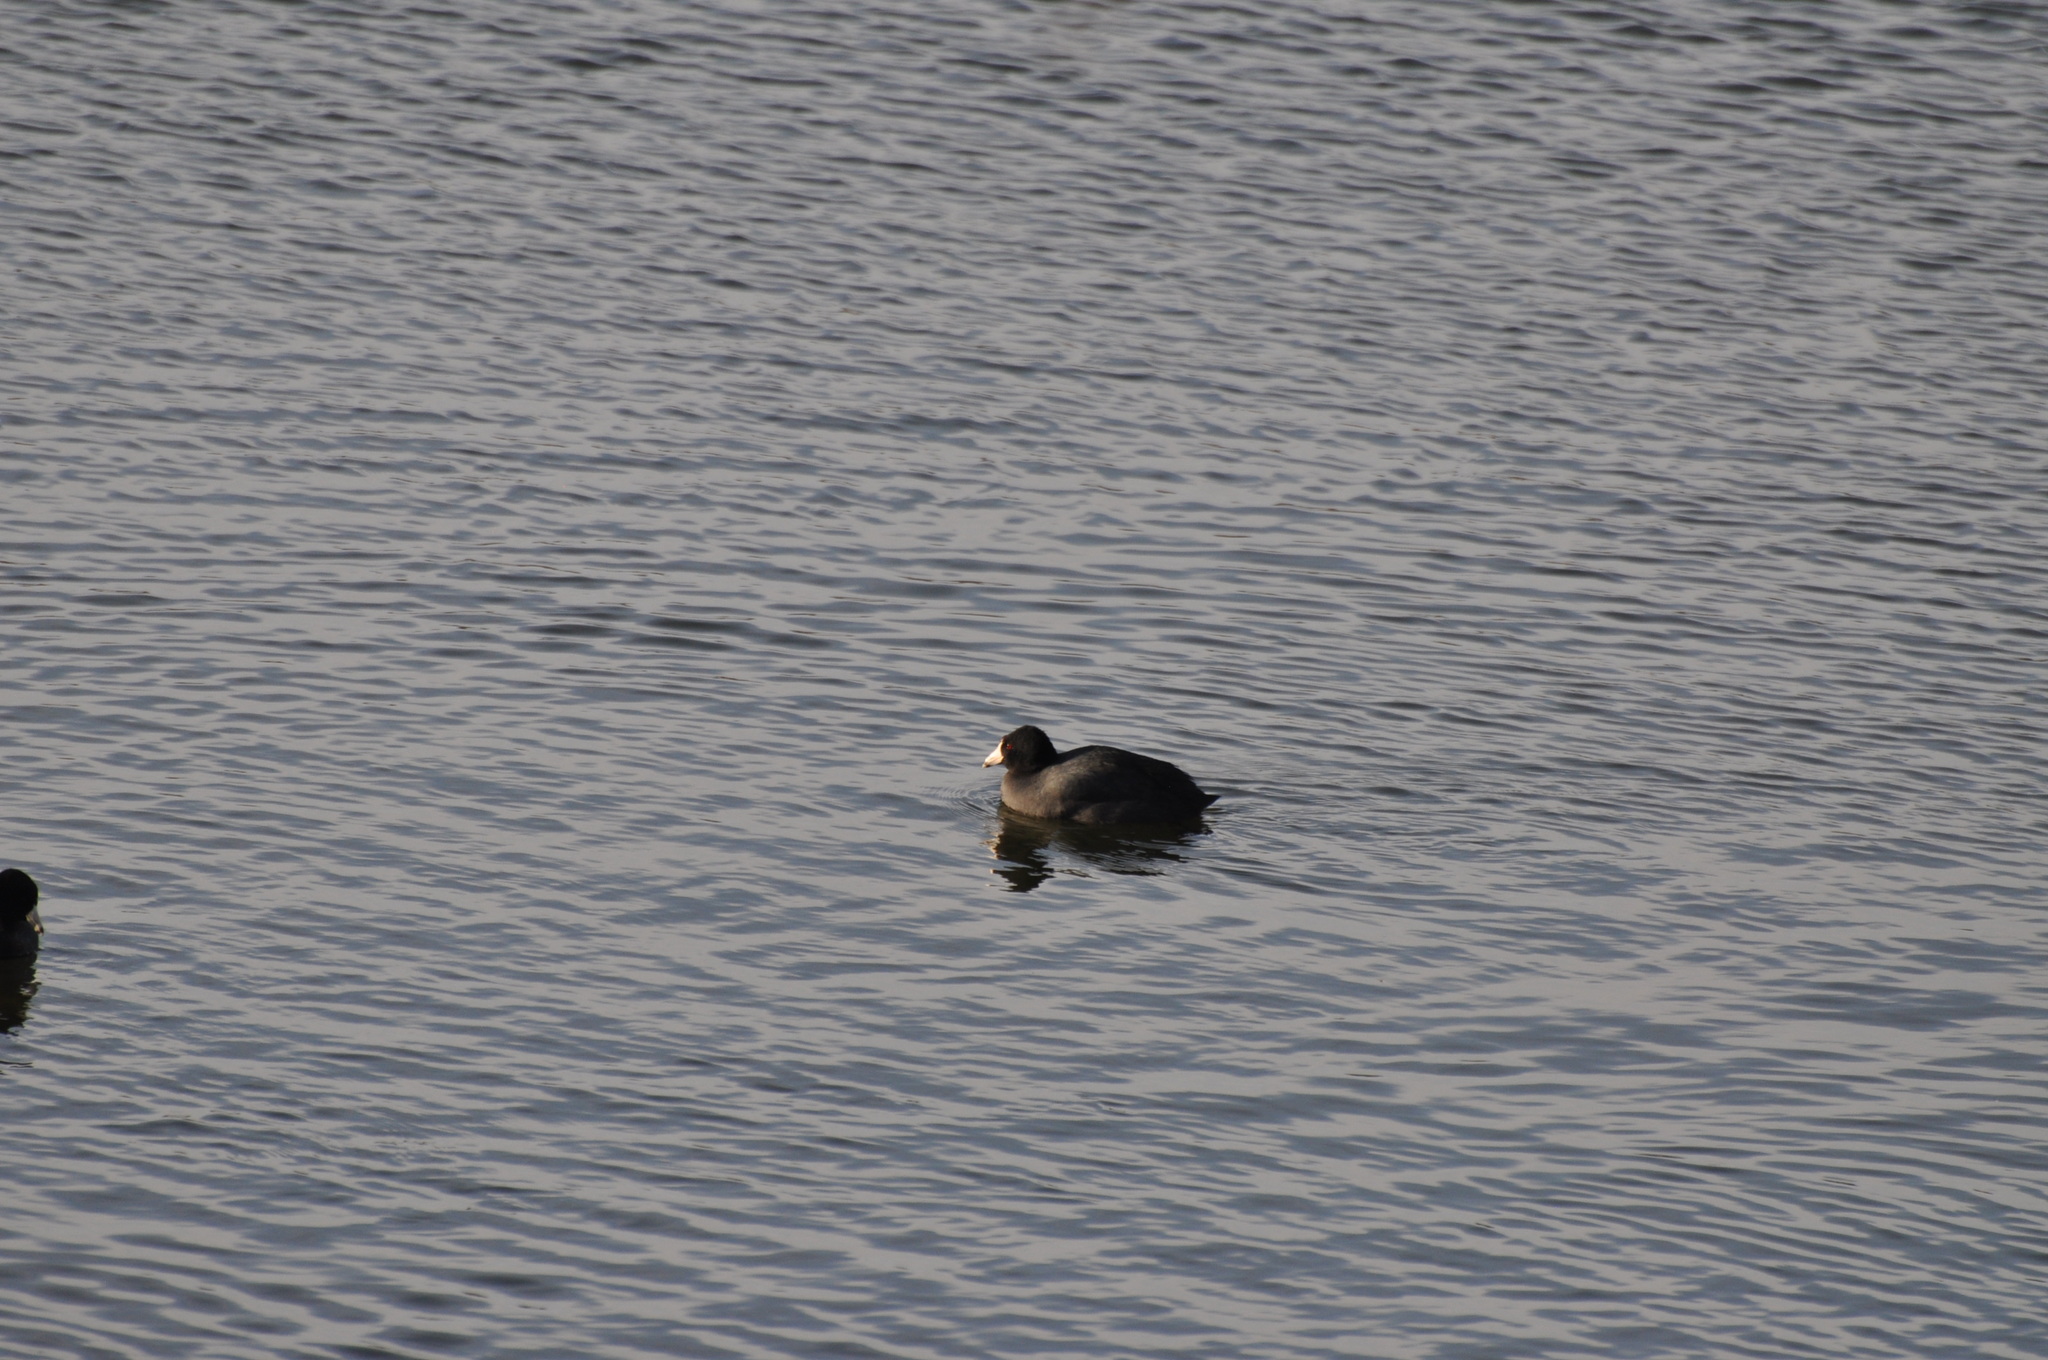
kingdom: Animalia
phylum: Chordata
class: Aves
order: Gruiformes
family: Rallidae
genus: Fulica
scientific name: Fulica americana
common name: American coot
